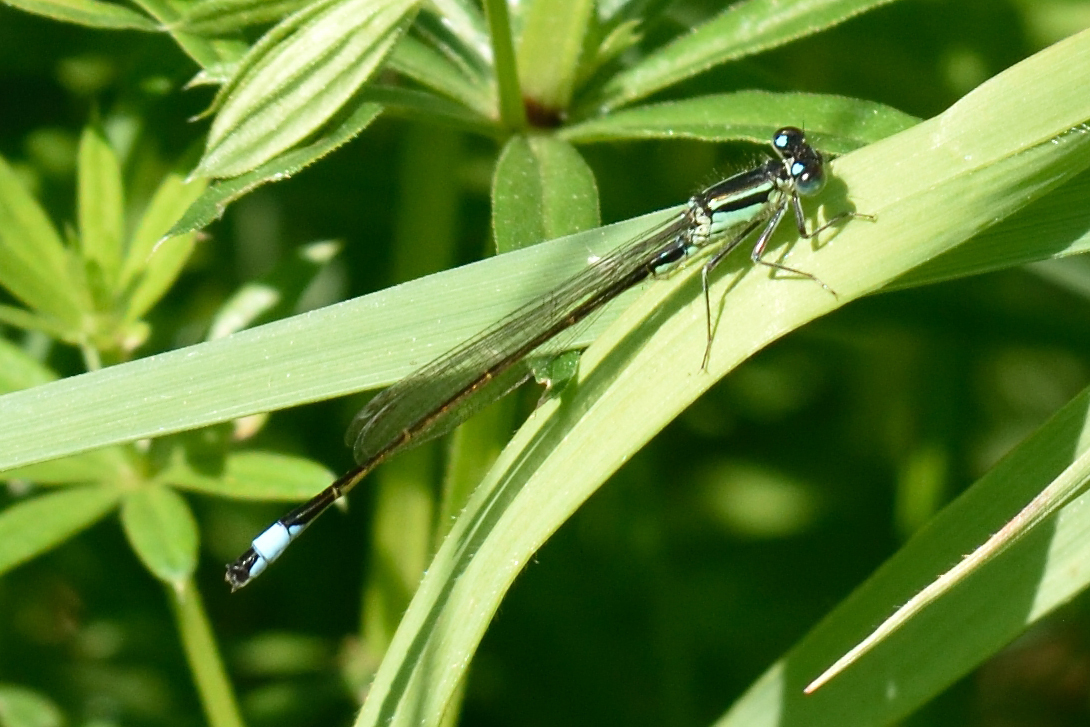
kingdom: Animalia
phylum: Arthropoda
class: Insecta
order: Odonata
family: Coenagrionidae
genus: Ischnura
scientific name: Ischnura elegans
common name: Blue-tailed damselfly
